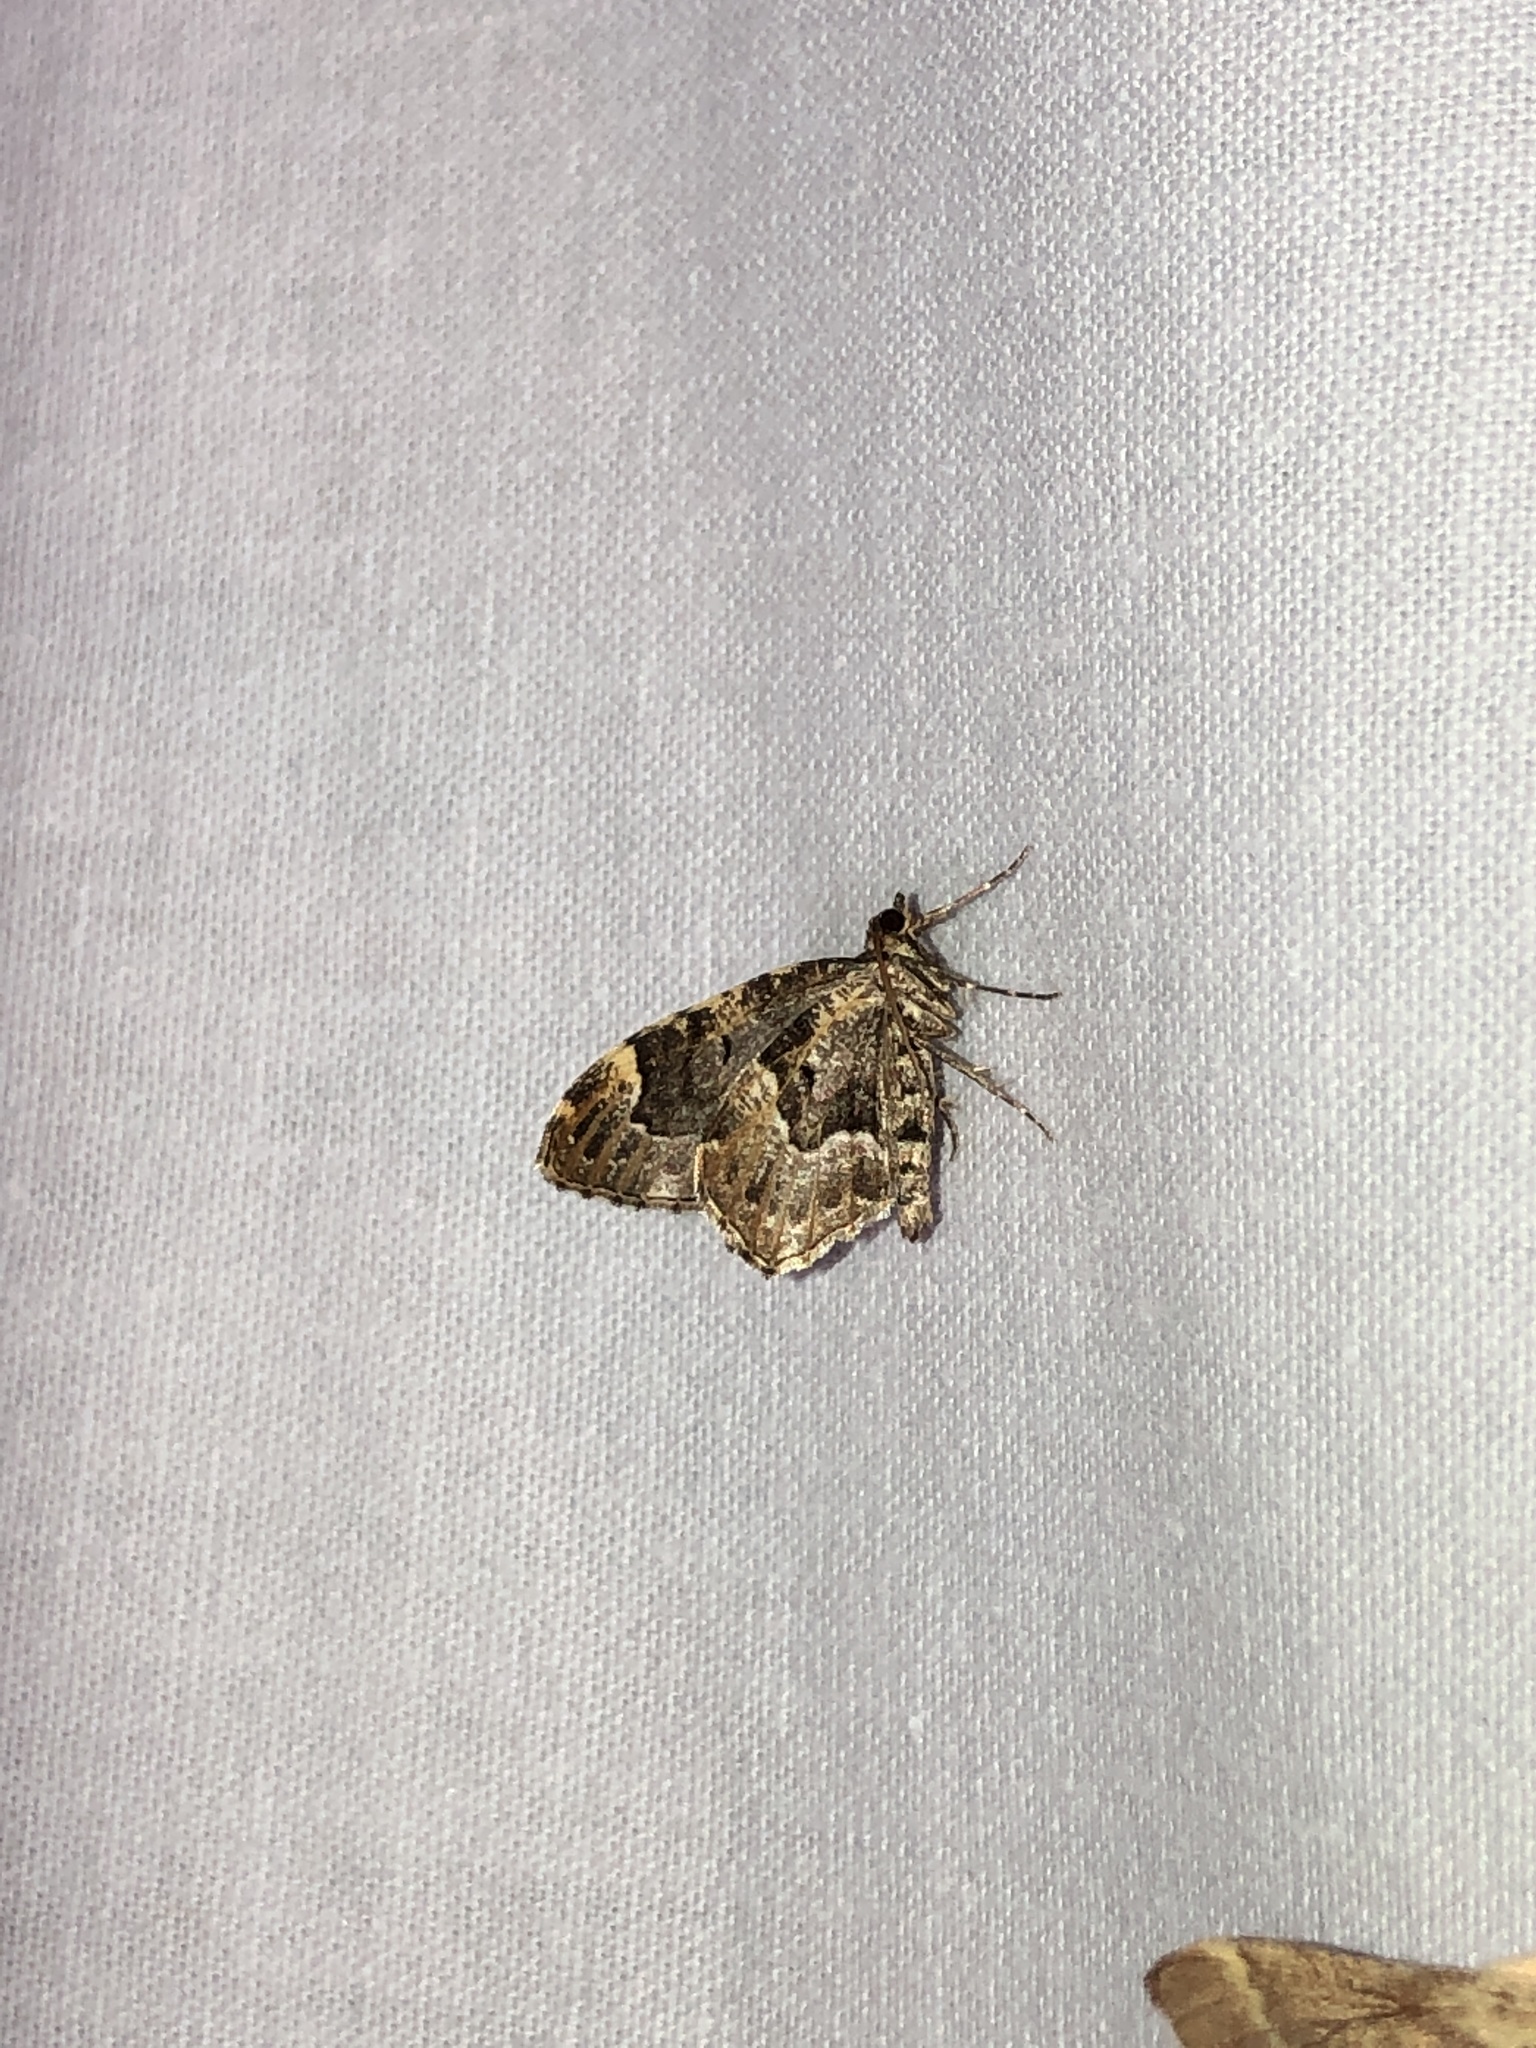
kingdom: Animalia
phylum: Arthropoda
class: Insecta
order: Lepidoptera
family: Geometridae
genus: Ceratodalia
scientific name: Ceratodalia gueneata
